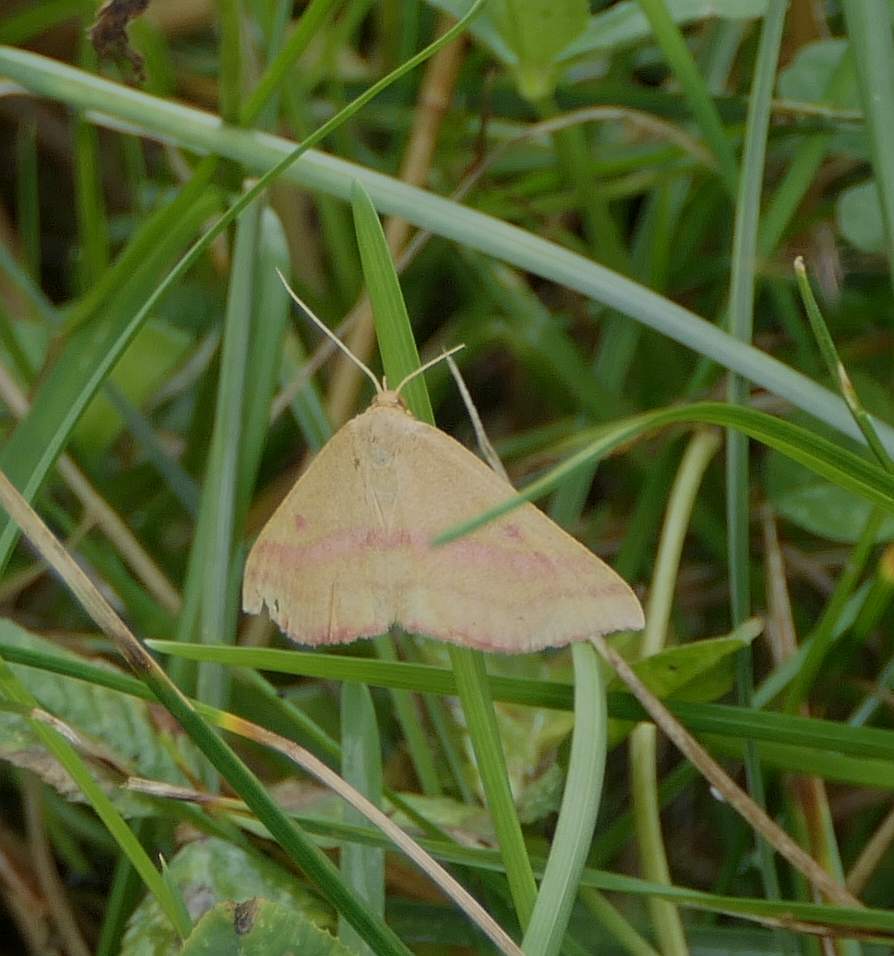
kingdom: Animalia
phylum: Arthropoda
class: Insecta
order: Lepidoptera
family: Geometridae
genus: Haematopis
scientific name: Haematopis grataria
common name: Chickweed geometer
